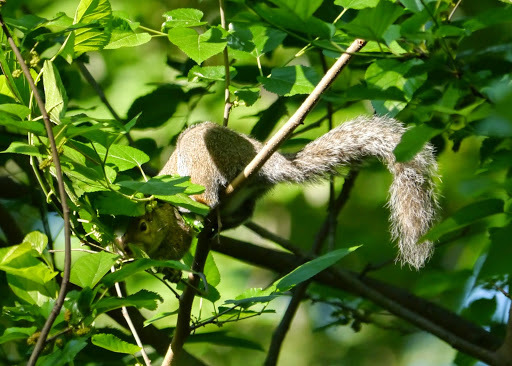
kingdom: Animalia
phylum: Chordata
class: Mammalia
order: Rodentia
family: Sciuridae
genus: Sciurus
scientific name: Sciurus carolinensis
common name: Eastern gray squirrel
